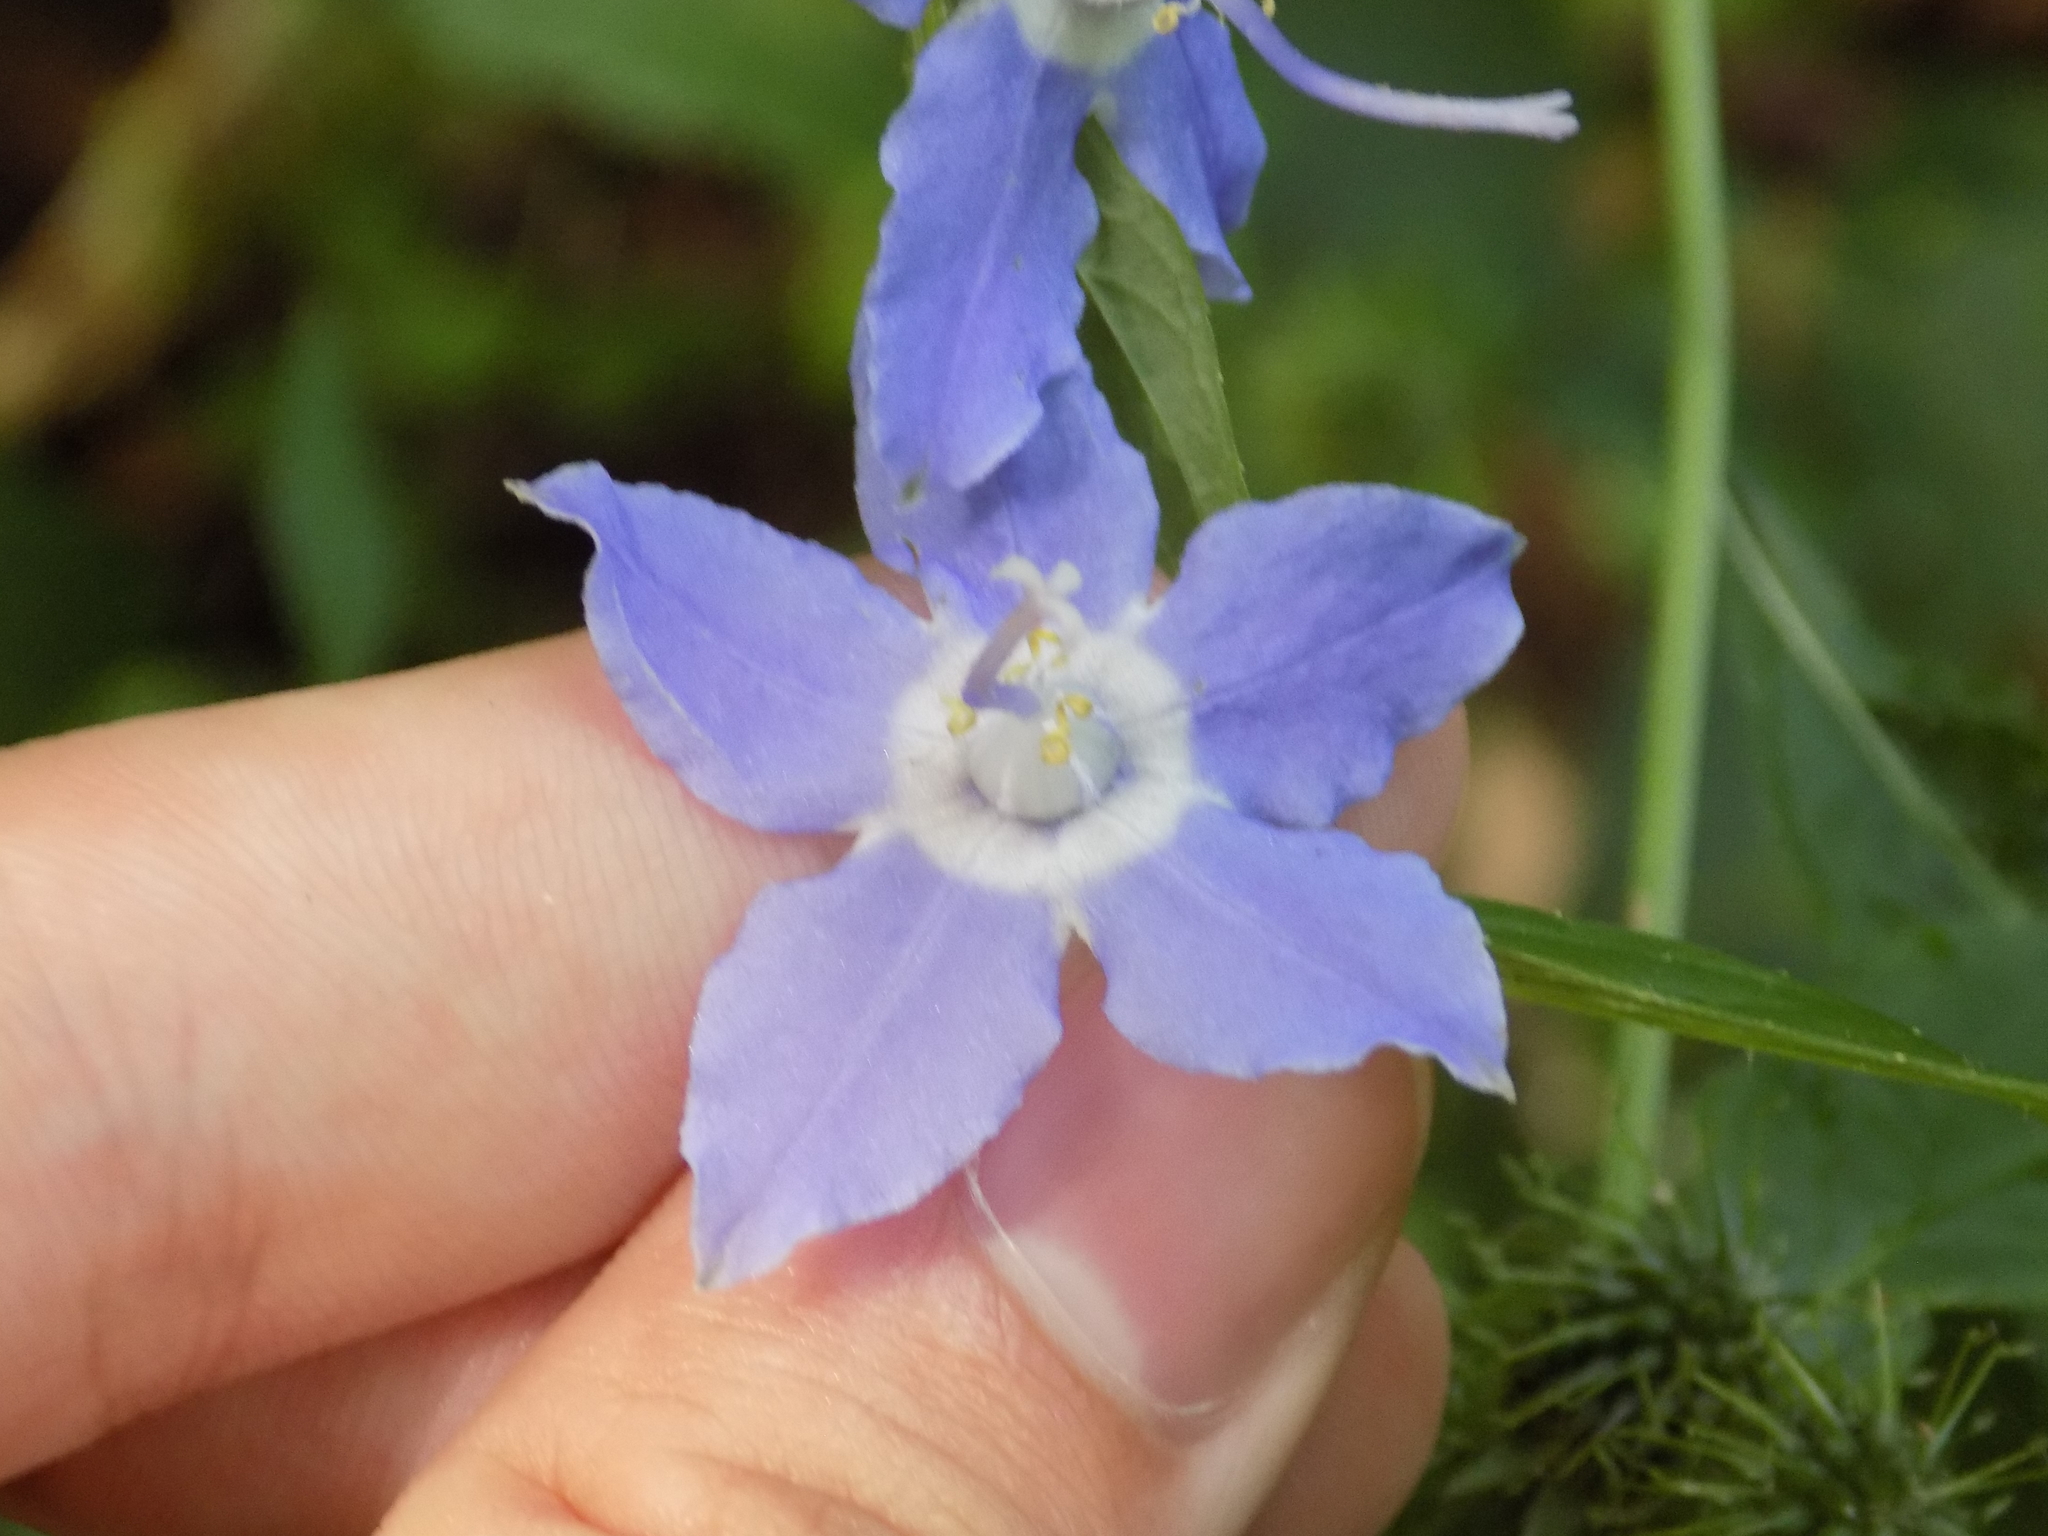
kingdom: Plantae
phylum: Tracheophyta
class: Magnoliopsida
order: Asterales
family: Campanulaceae
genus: Campanulastrum
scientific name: Campanulastrum americanum
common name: American bellflower
